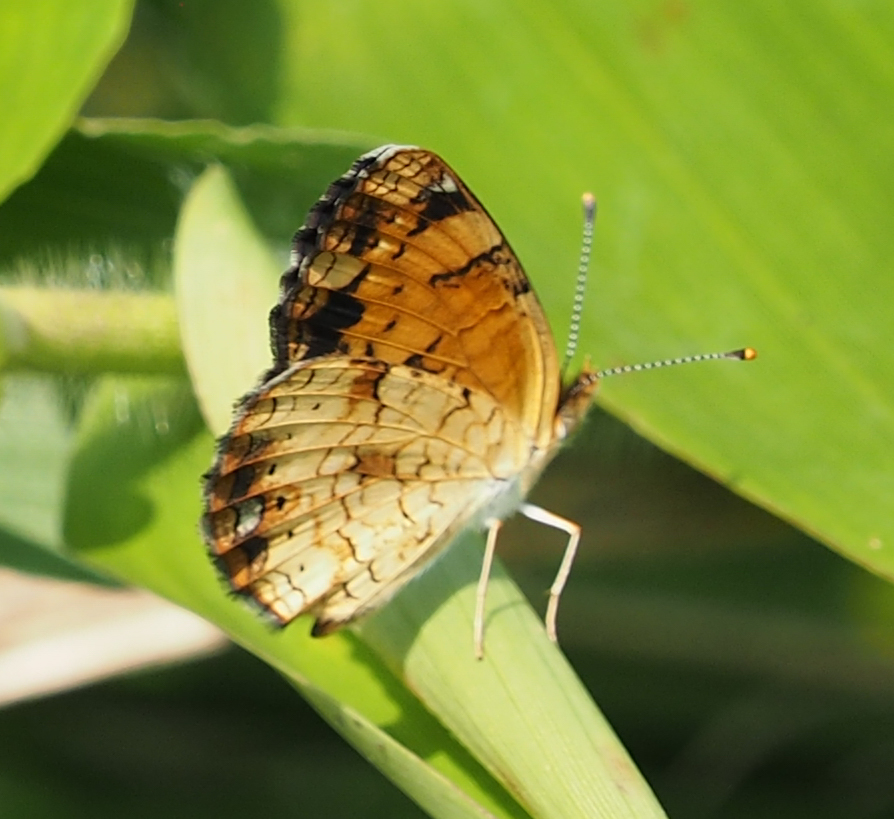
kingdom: Animalia
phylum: Arthropoda
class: Insecta
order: Lepidoptera
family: Nymphalidae
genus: Phyciodes
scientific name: Phyciodes tharos
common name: Pearl crescent
